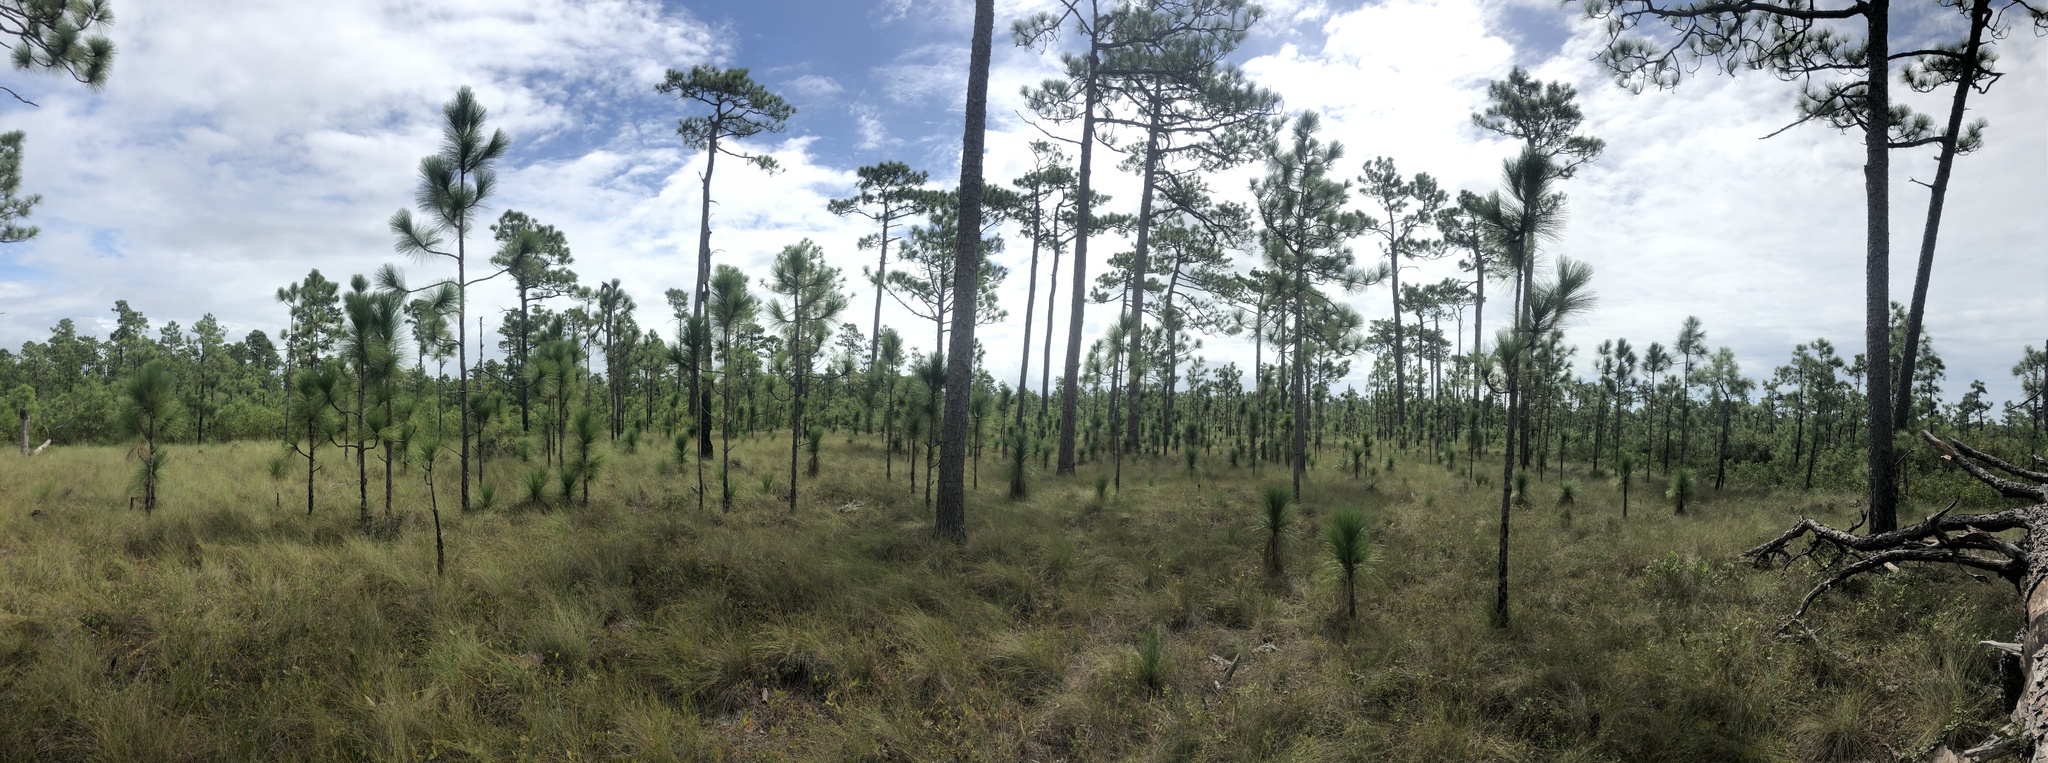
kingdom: Plantae
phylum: Tracheophyta
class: Pinopsida
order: Pinales
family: Pinaceae
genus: Pinus
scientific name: Pinus palustris
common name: Longleaf pine
